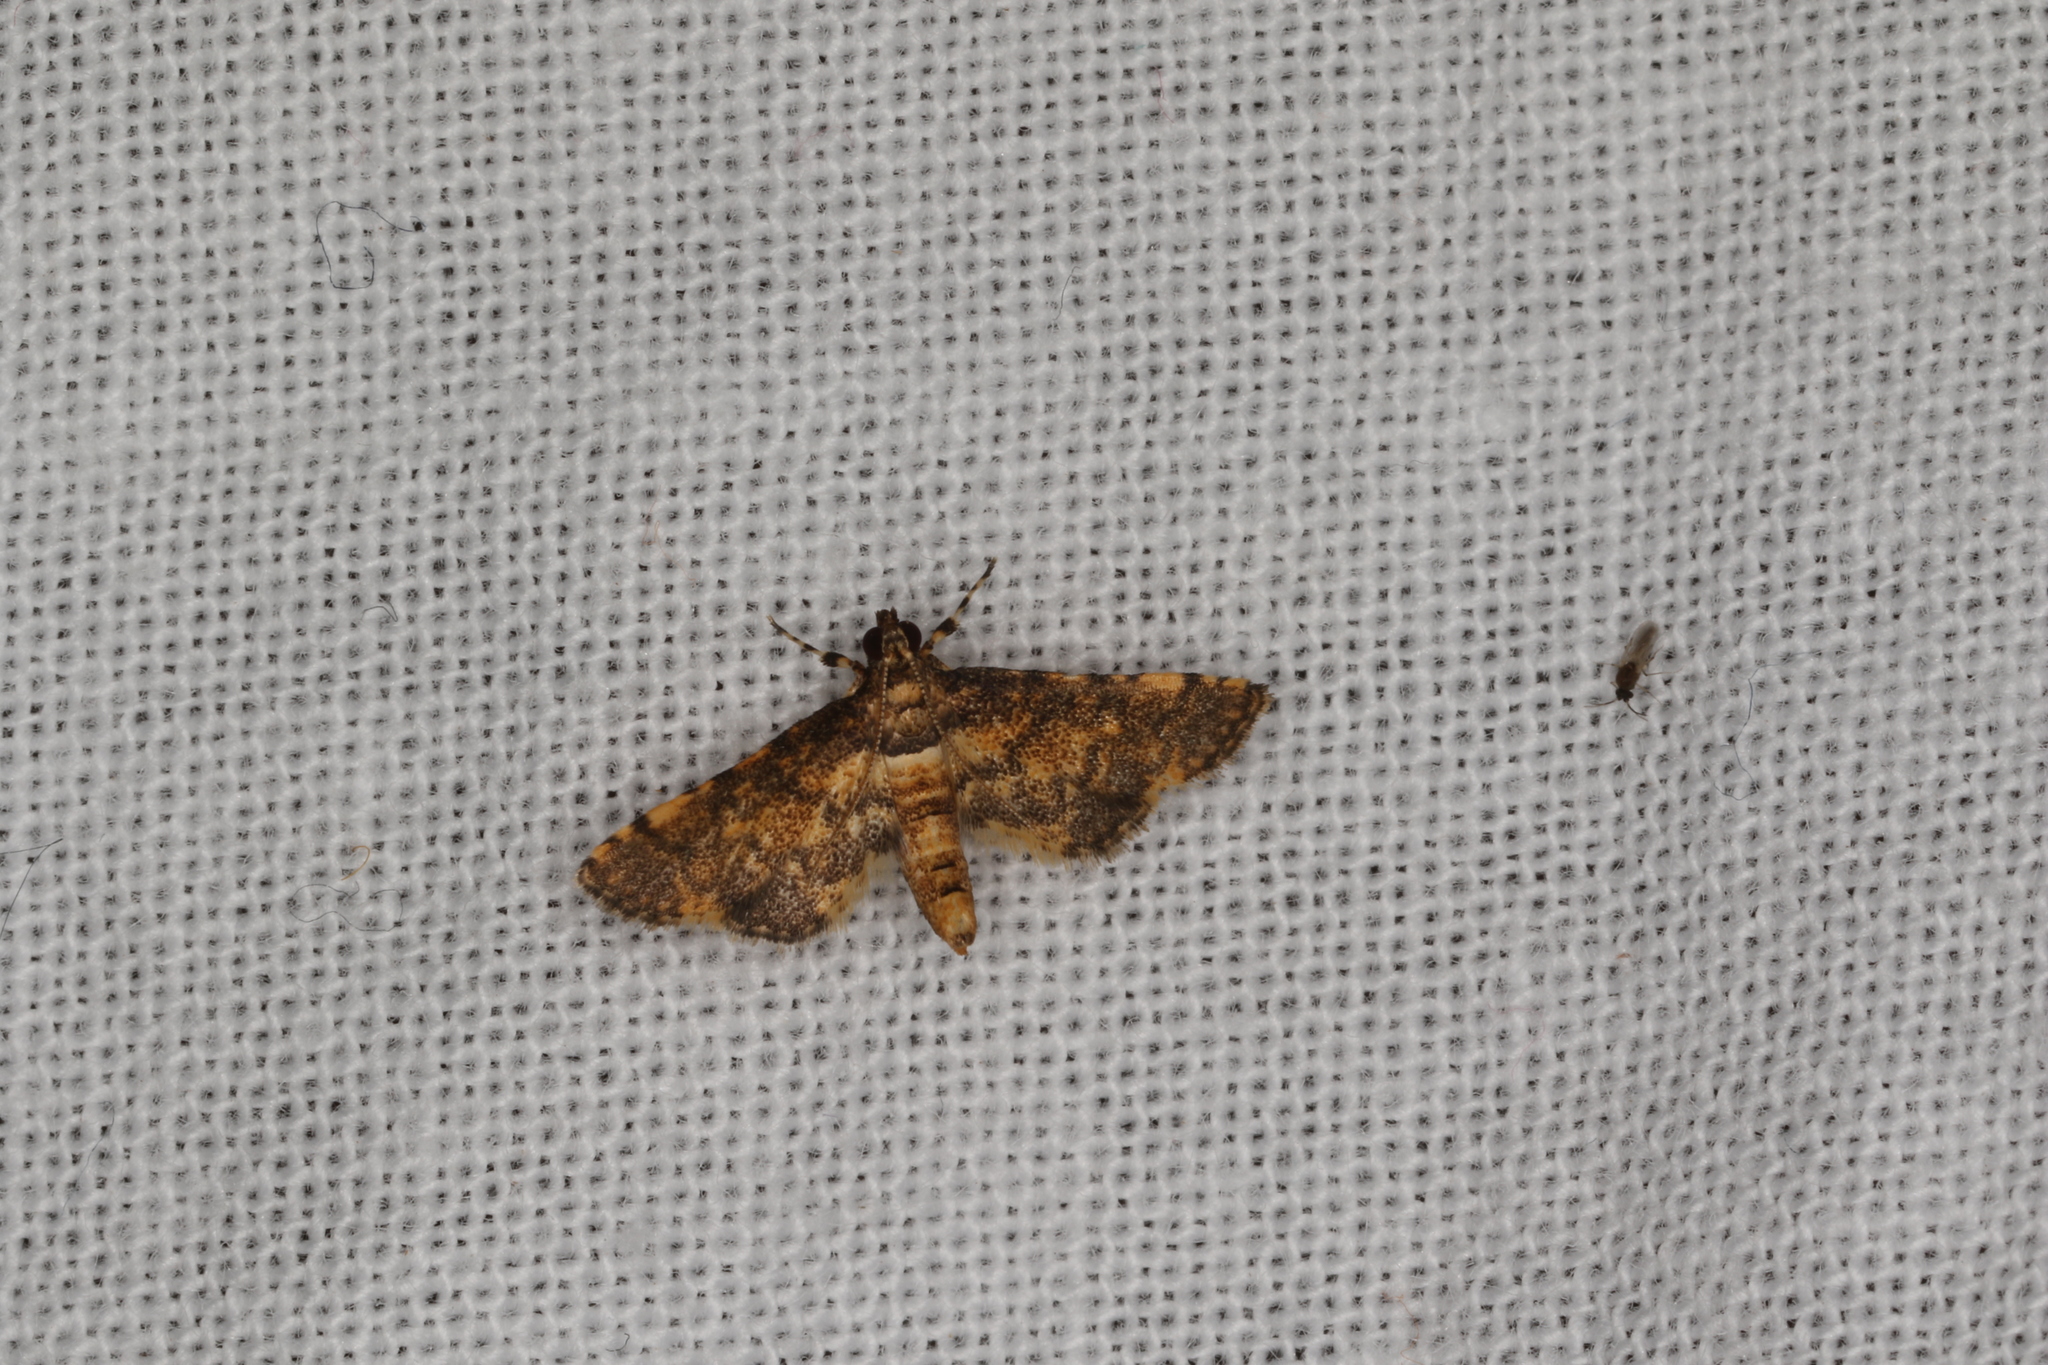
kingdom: Animalia
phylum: Arthropoda
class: Insecta
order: Lepidoptera
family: Crambidae
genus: Metasia
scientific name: Metasia tiasalis
